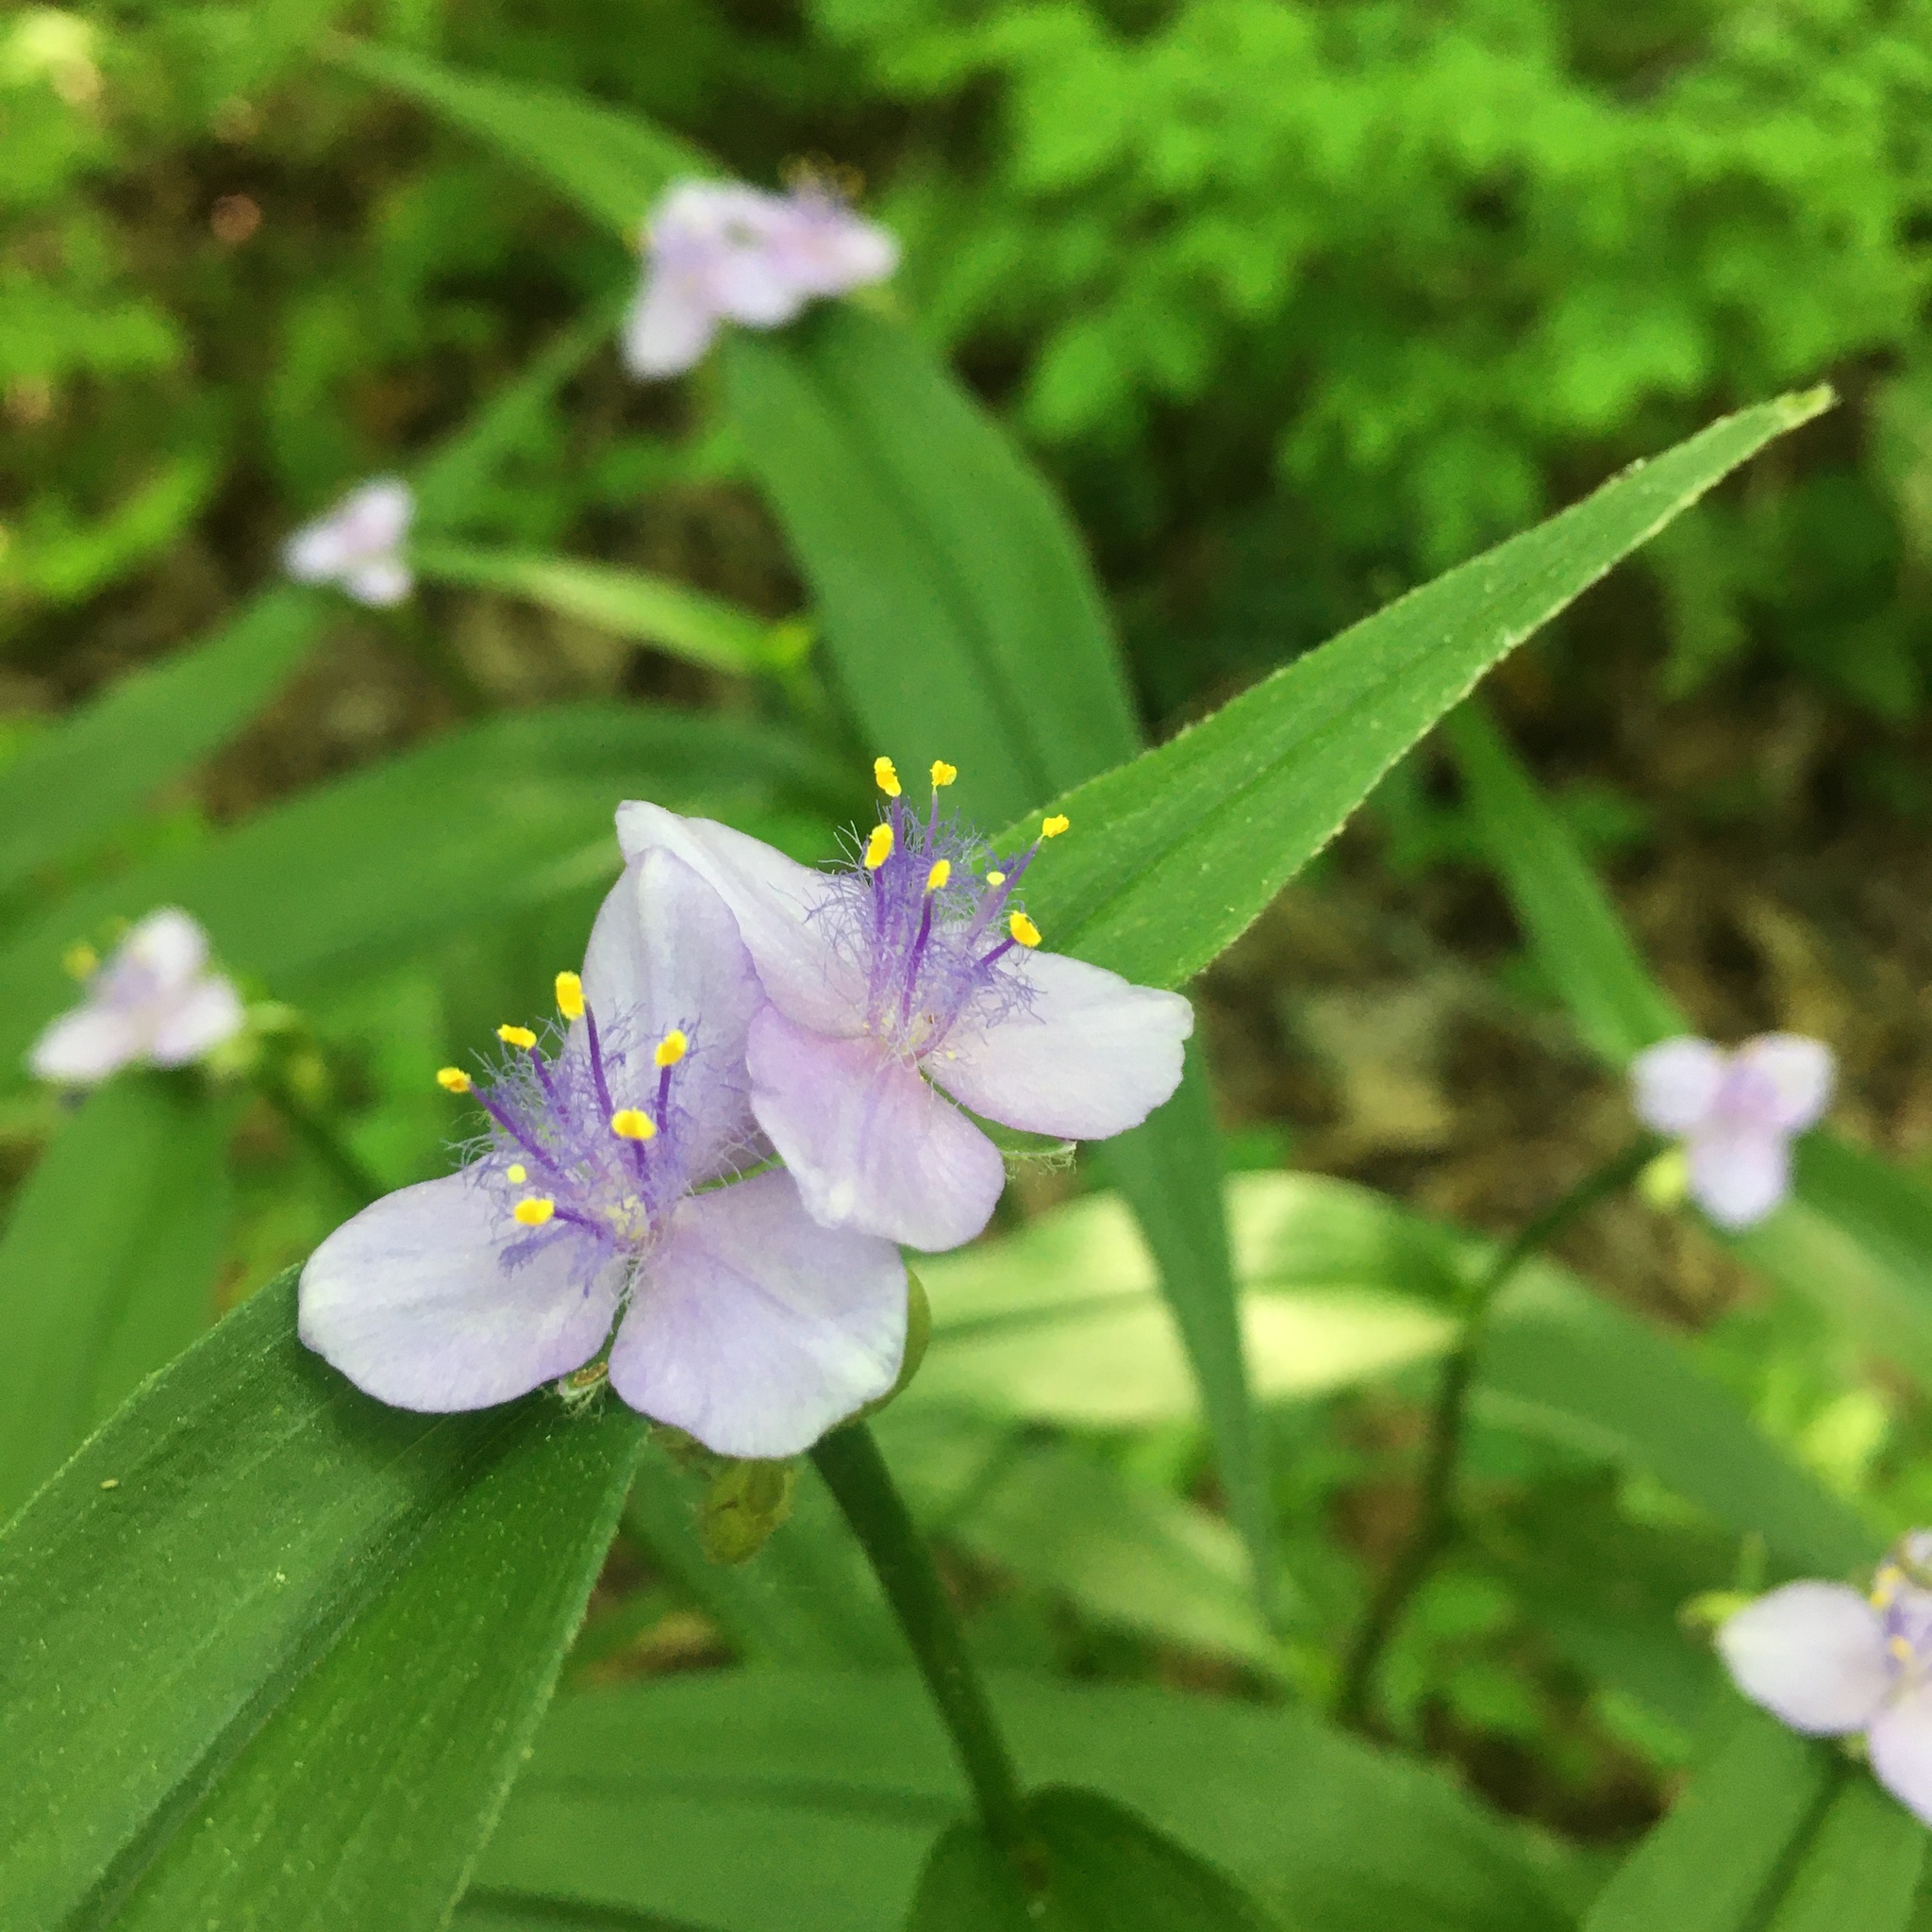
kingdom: Plantae
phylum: Tracheophyta
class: Liliopsida
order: Commelinales
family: Commelinaceae
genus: Tradescantia
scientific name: Tradescantia subaspera
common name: Wide-leaf spiderwort
